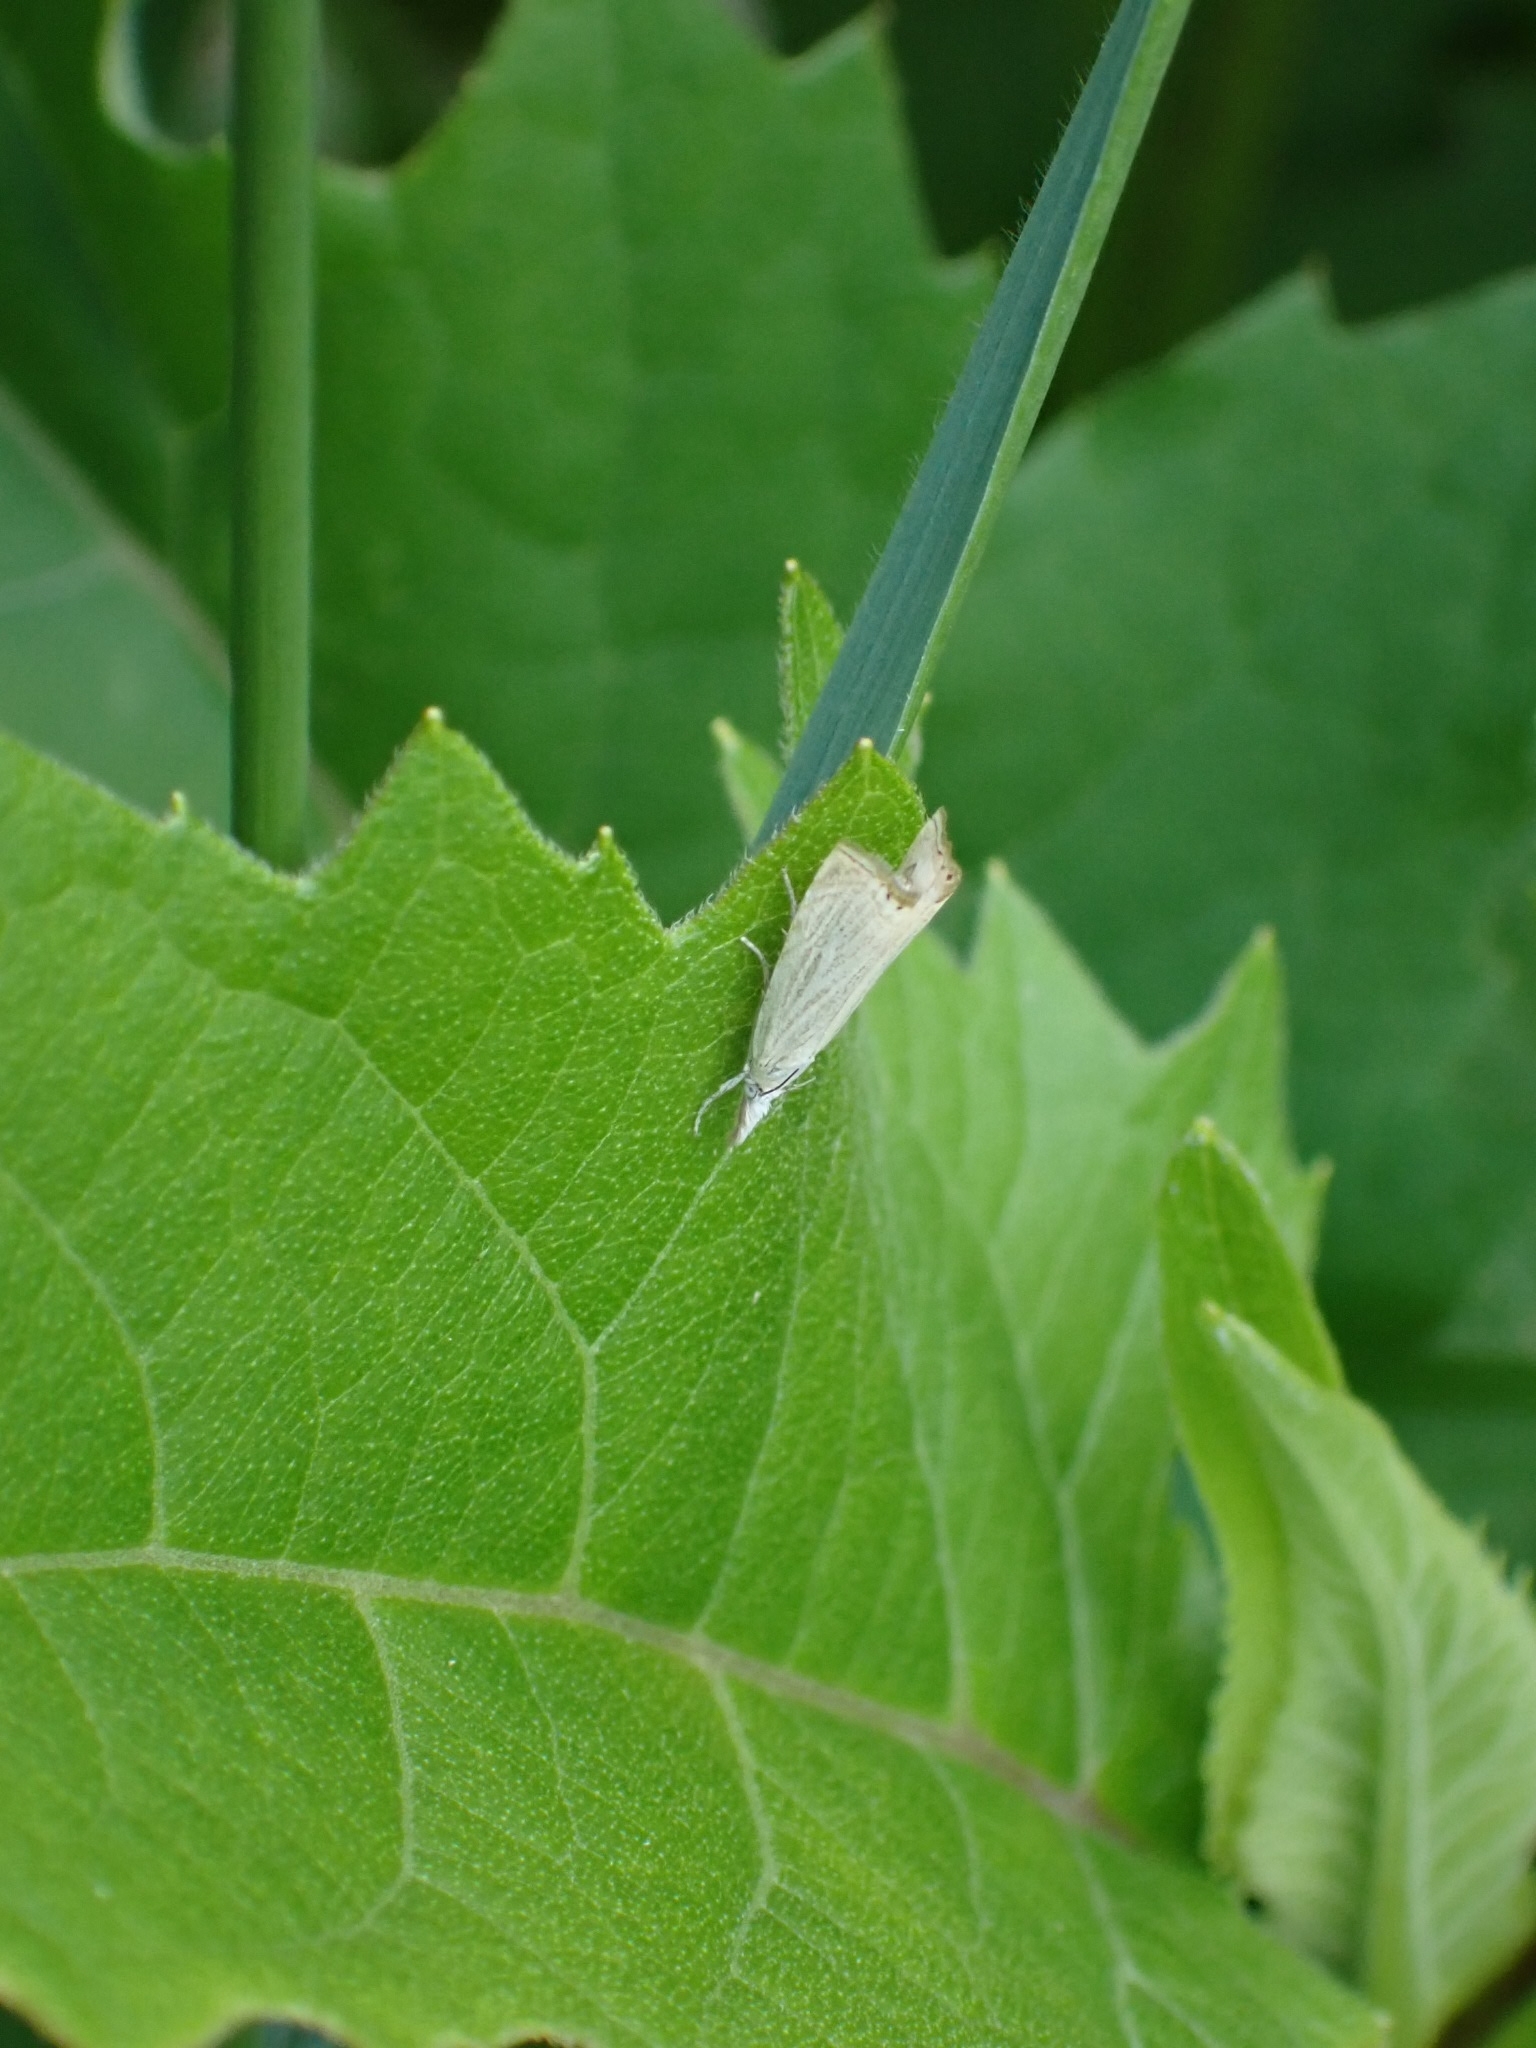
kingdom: Animalia
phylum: Arthropoda
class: Insecta
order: Lepidoptera
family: Crambidae
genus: Chrysoteuchia
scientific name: Chrysoteuchia culmella
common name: Garden grass-veneer
